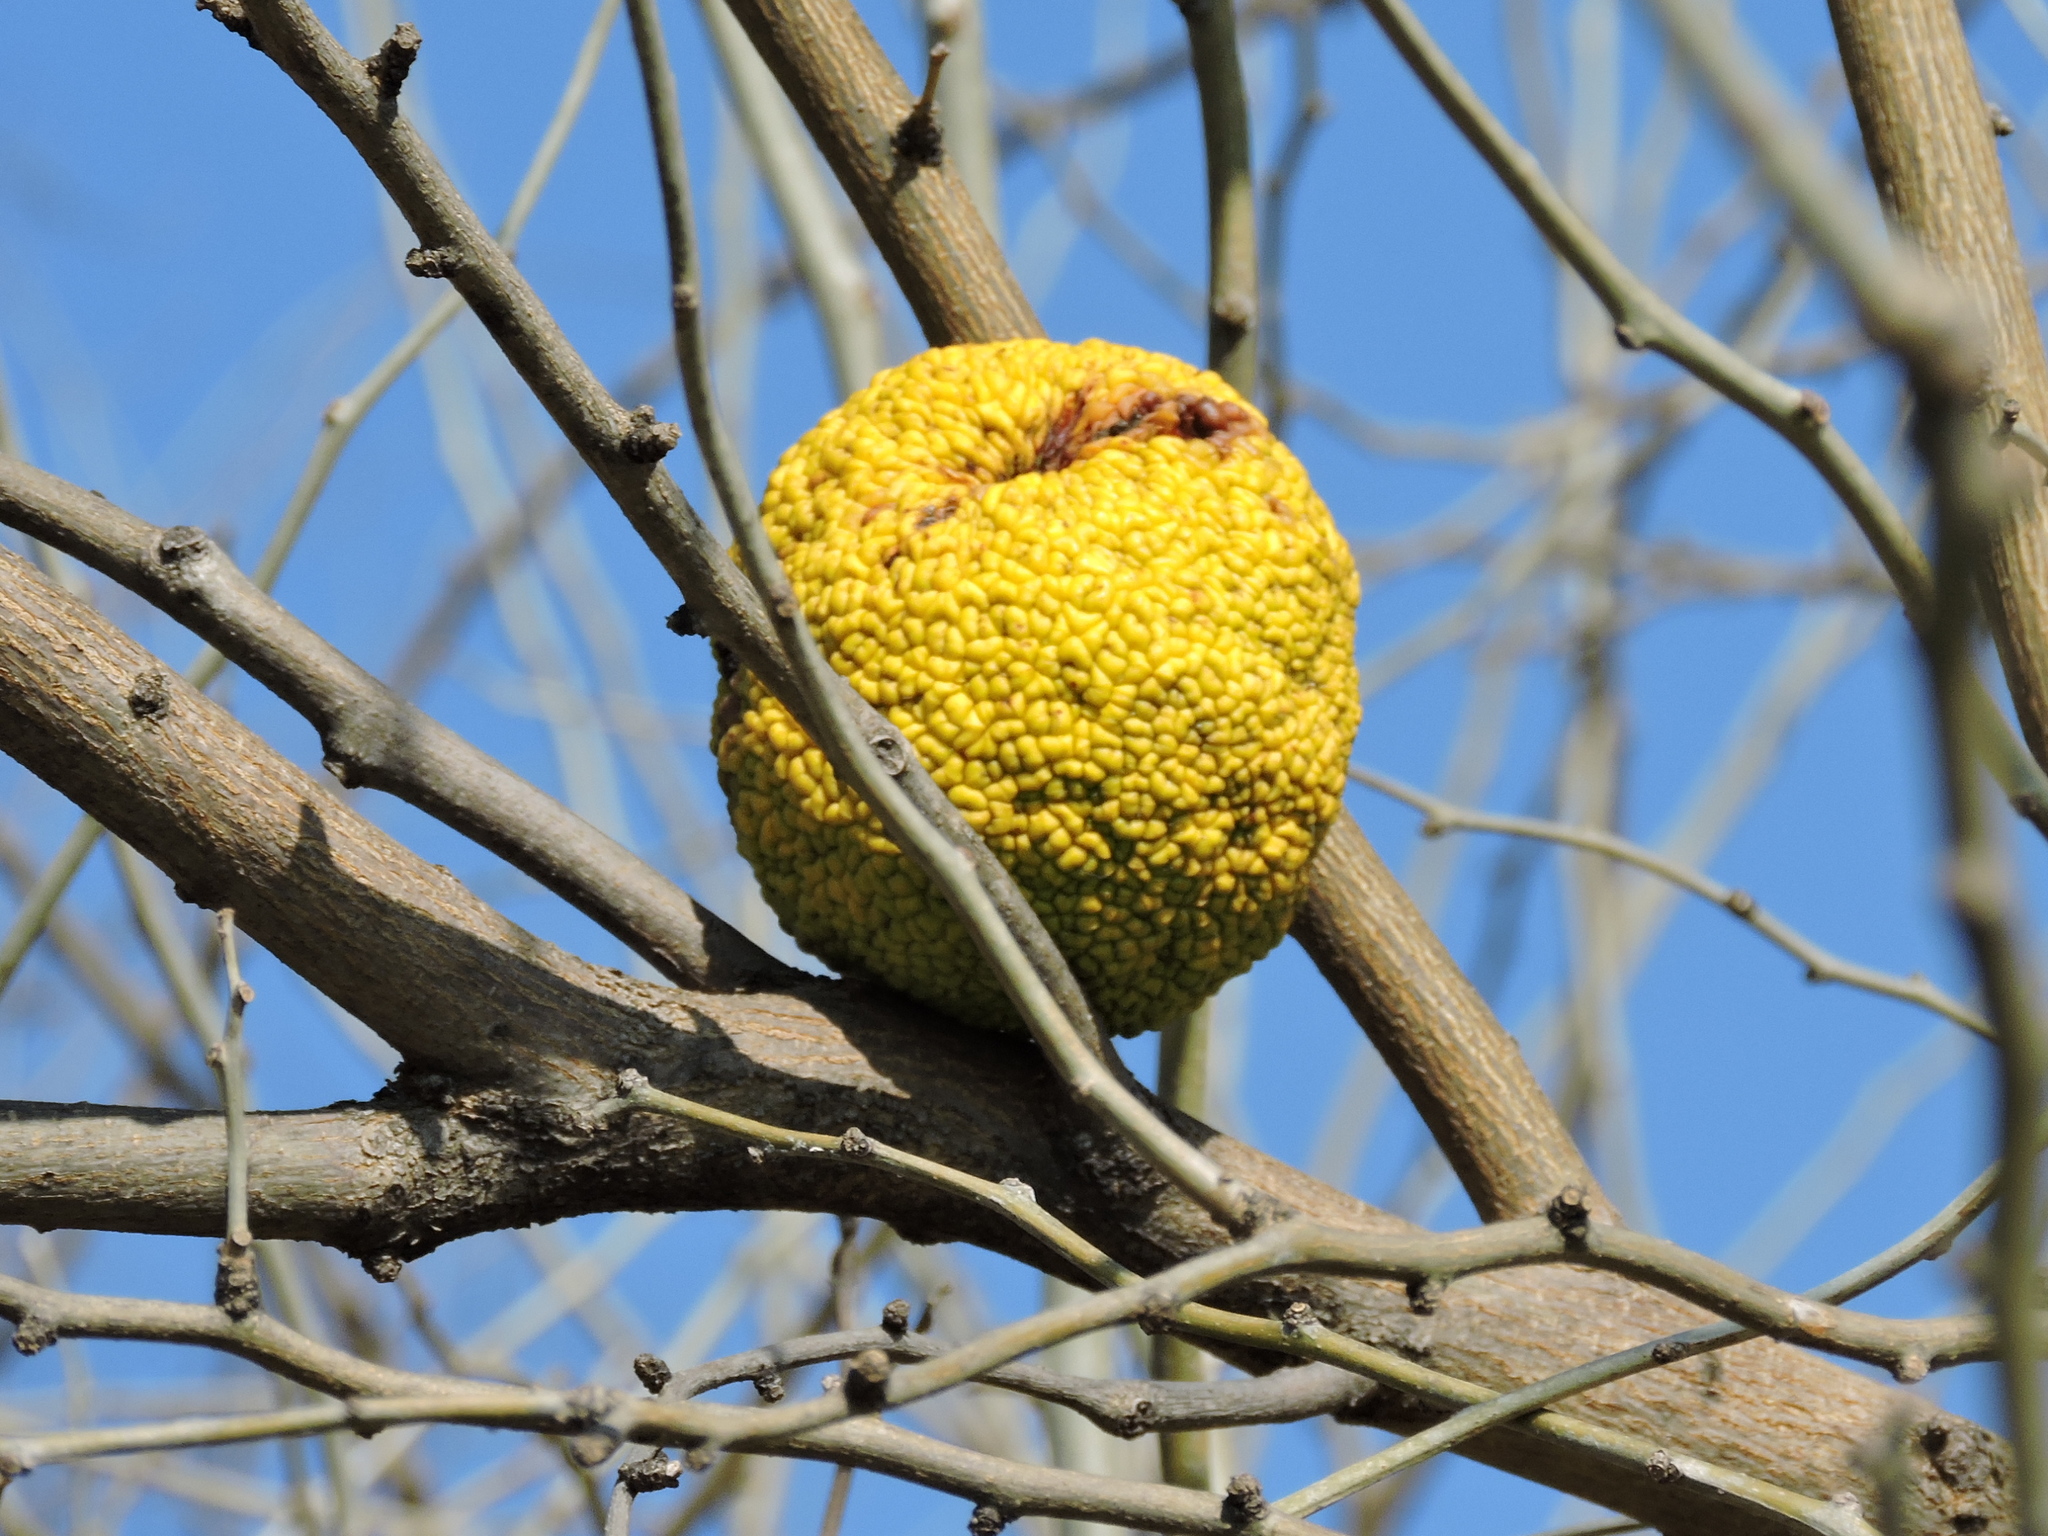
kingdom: Plantae
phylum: Tracheophyta
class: Magnoliopsida
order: Rosales
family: Moraceae
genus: Maclura
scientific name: Maclura pomifera
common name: Osage-orange
